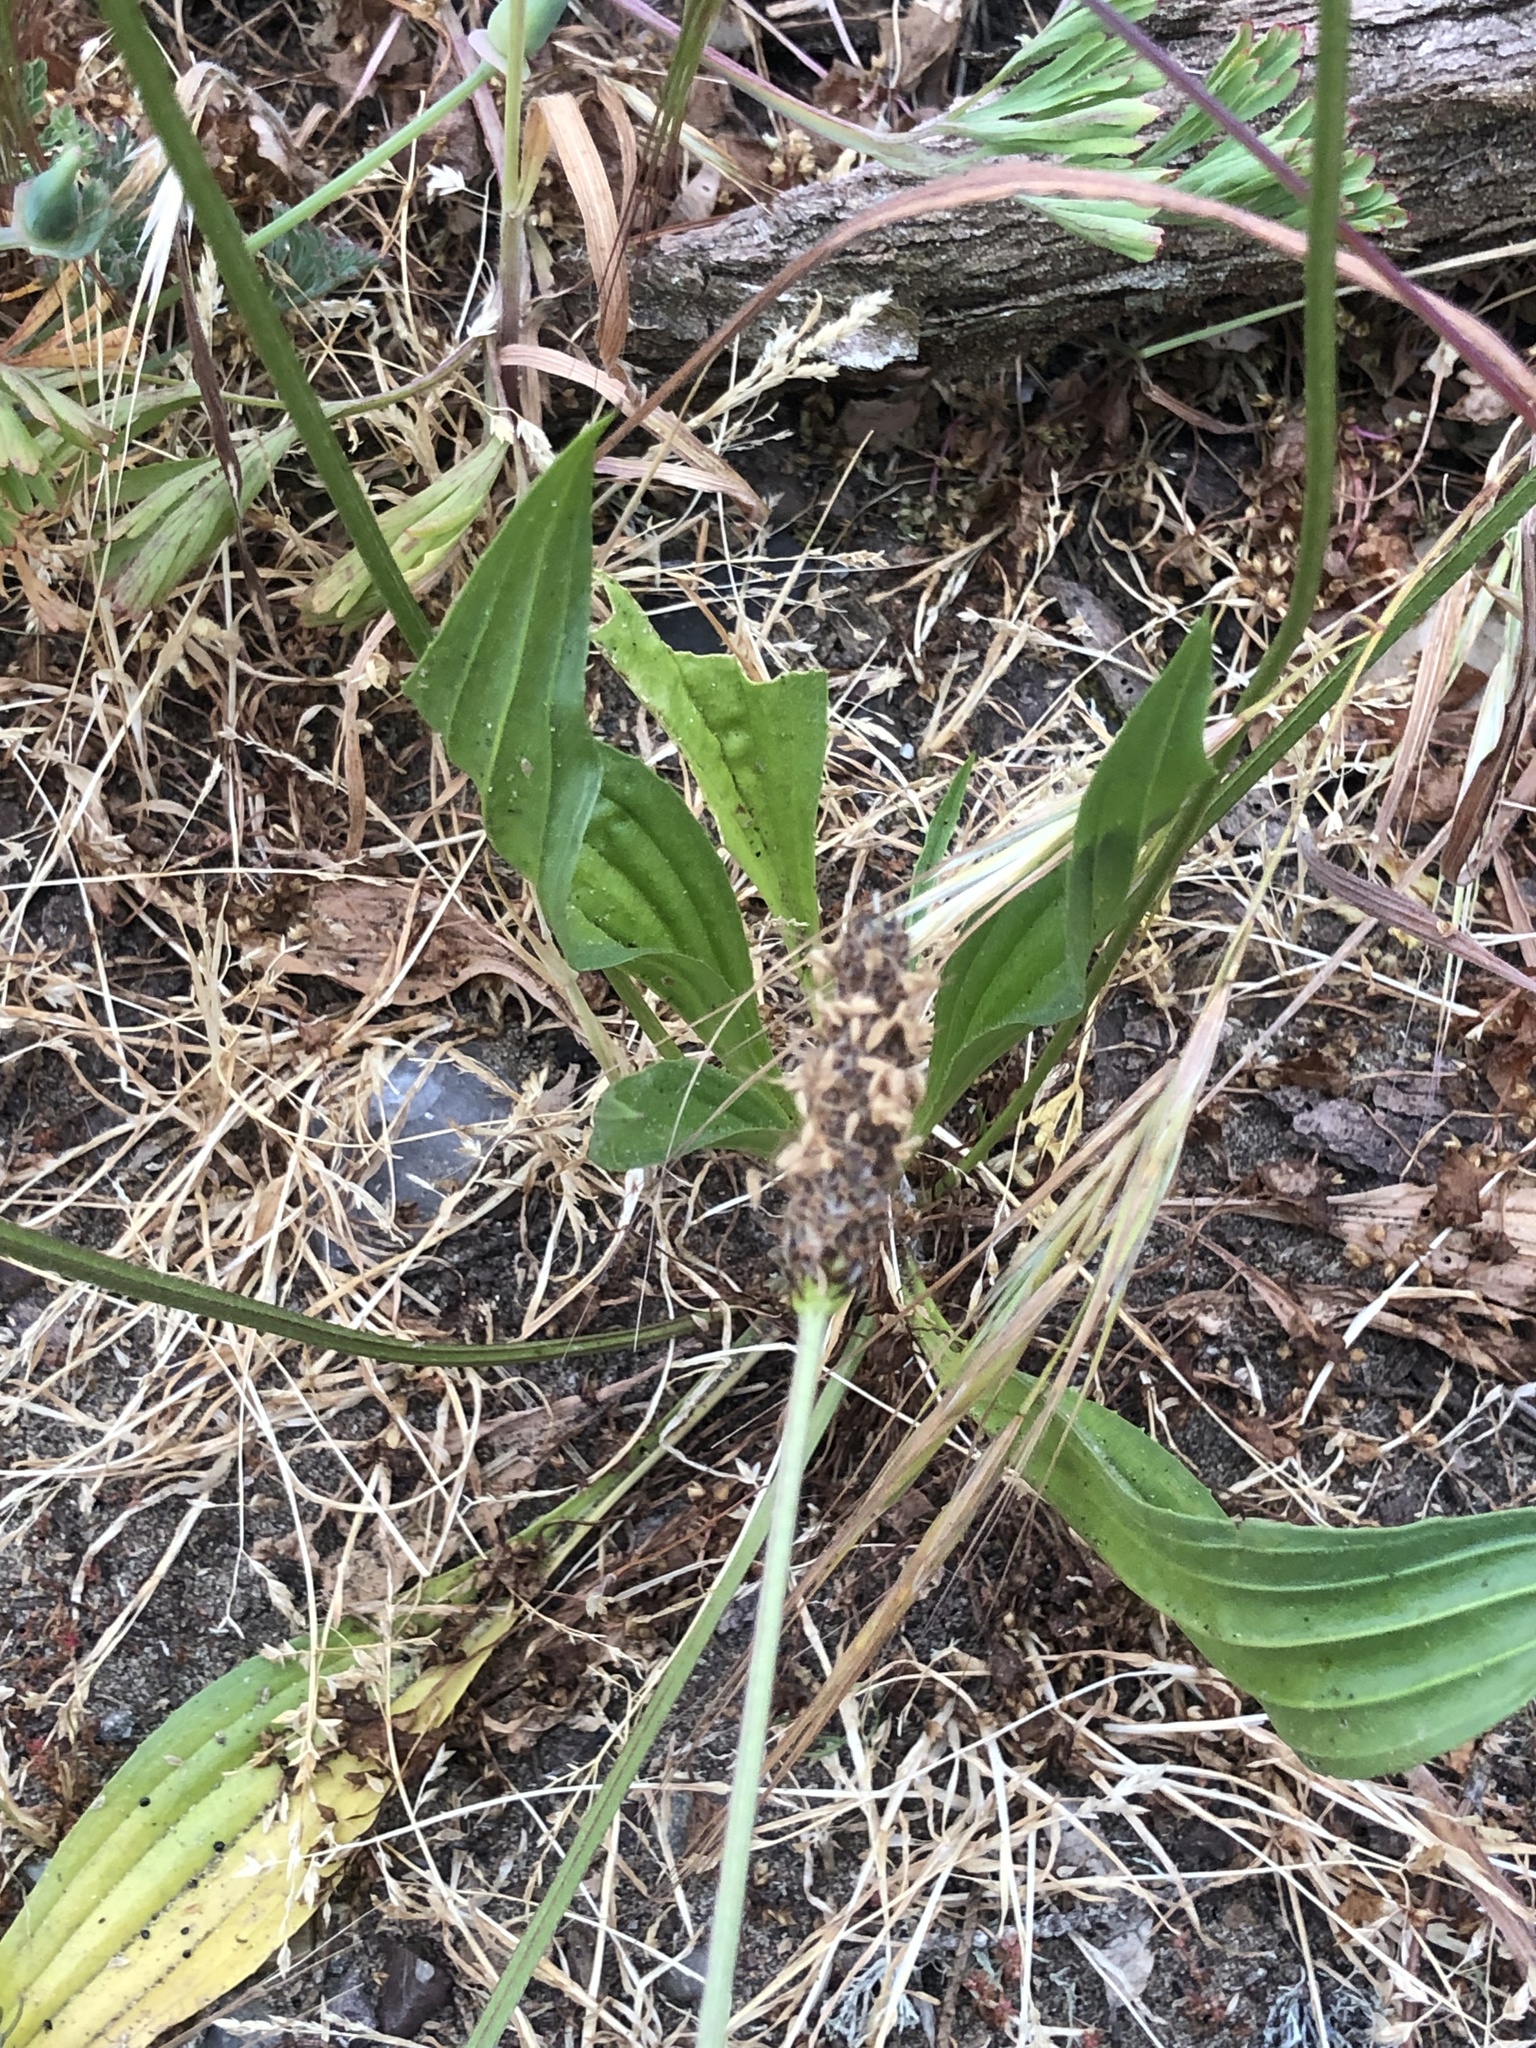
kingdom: Plantae
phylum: Tracheophyta
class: Magnoliopsida
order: Lamiales
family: Plantaginaceae
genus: Plantago
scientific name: Plantago lanceolata
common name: Ribwort plantain
